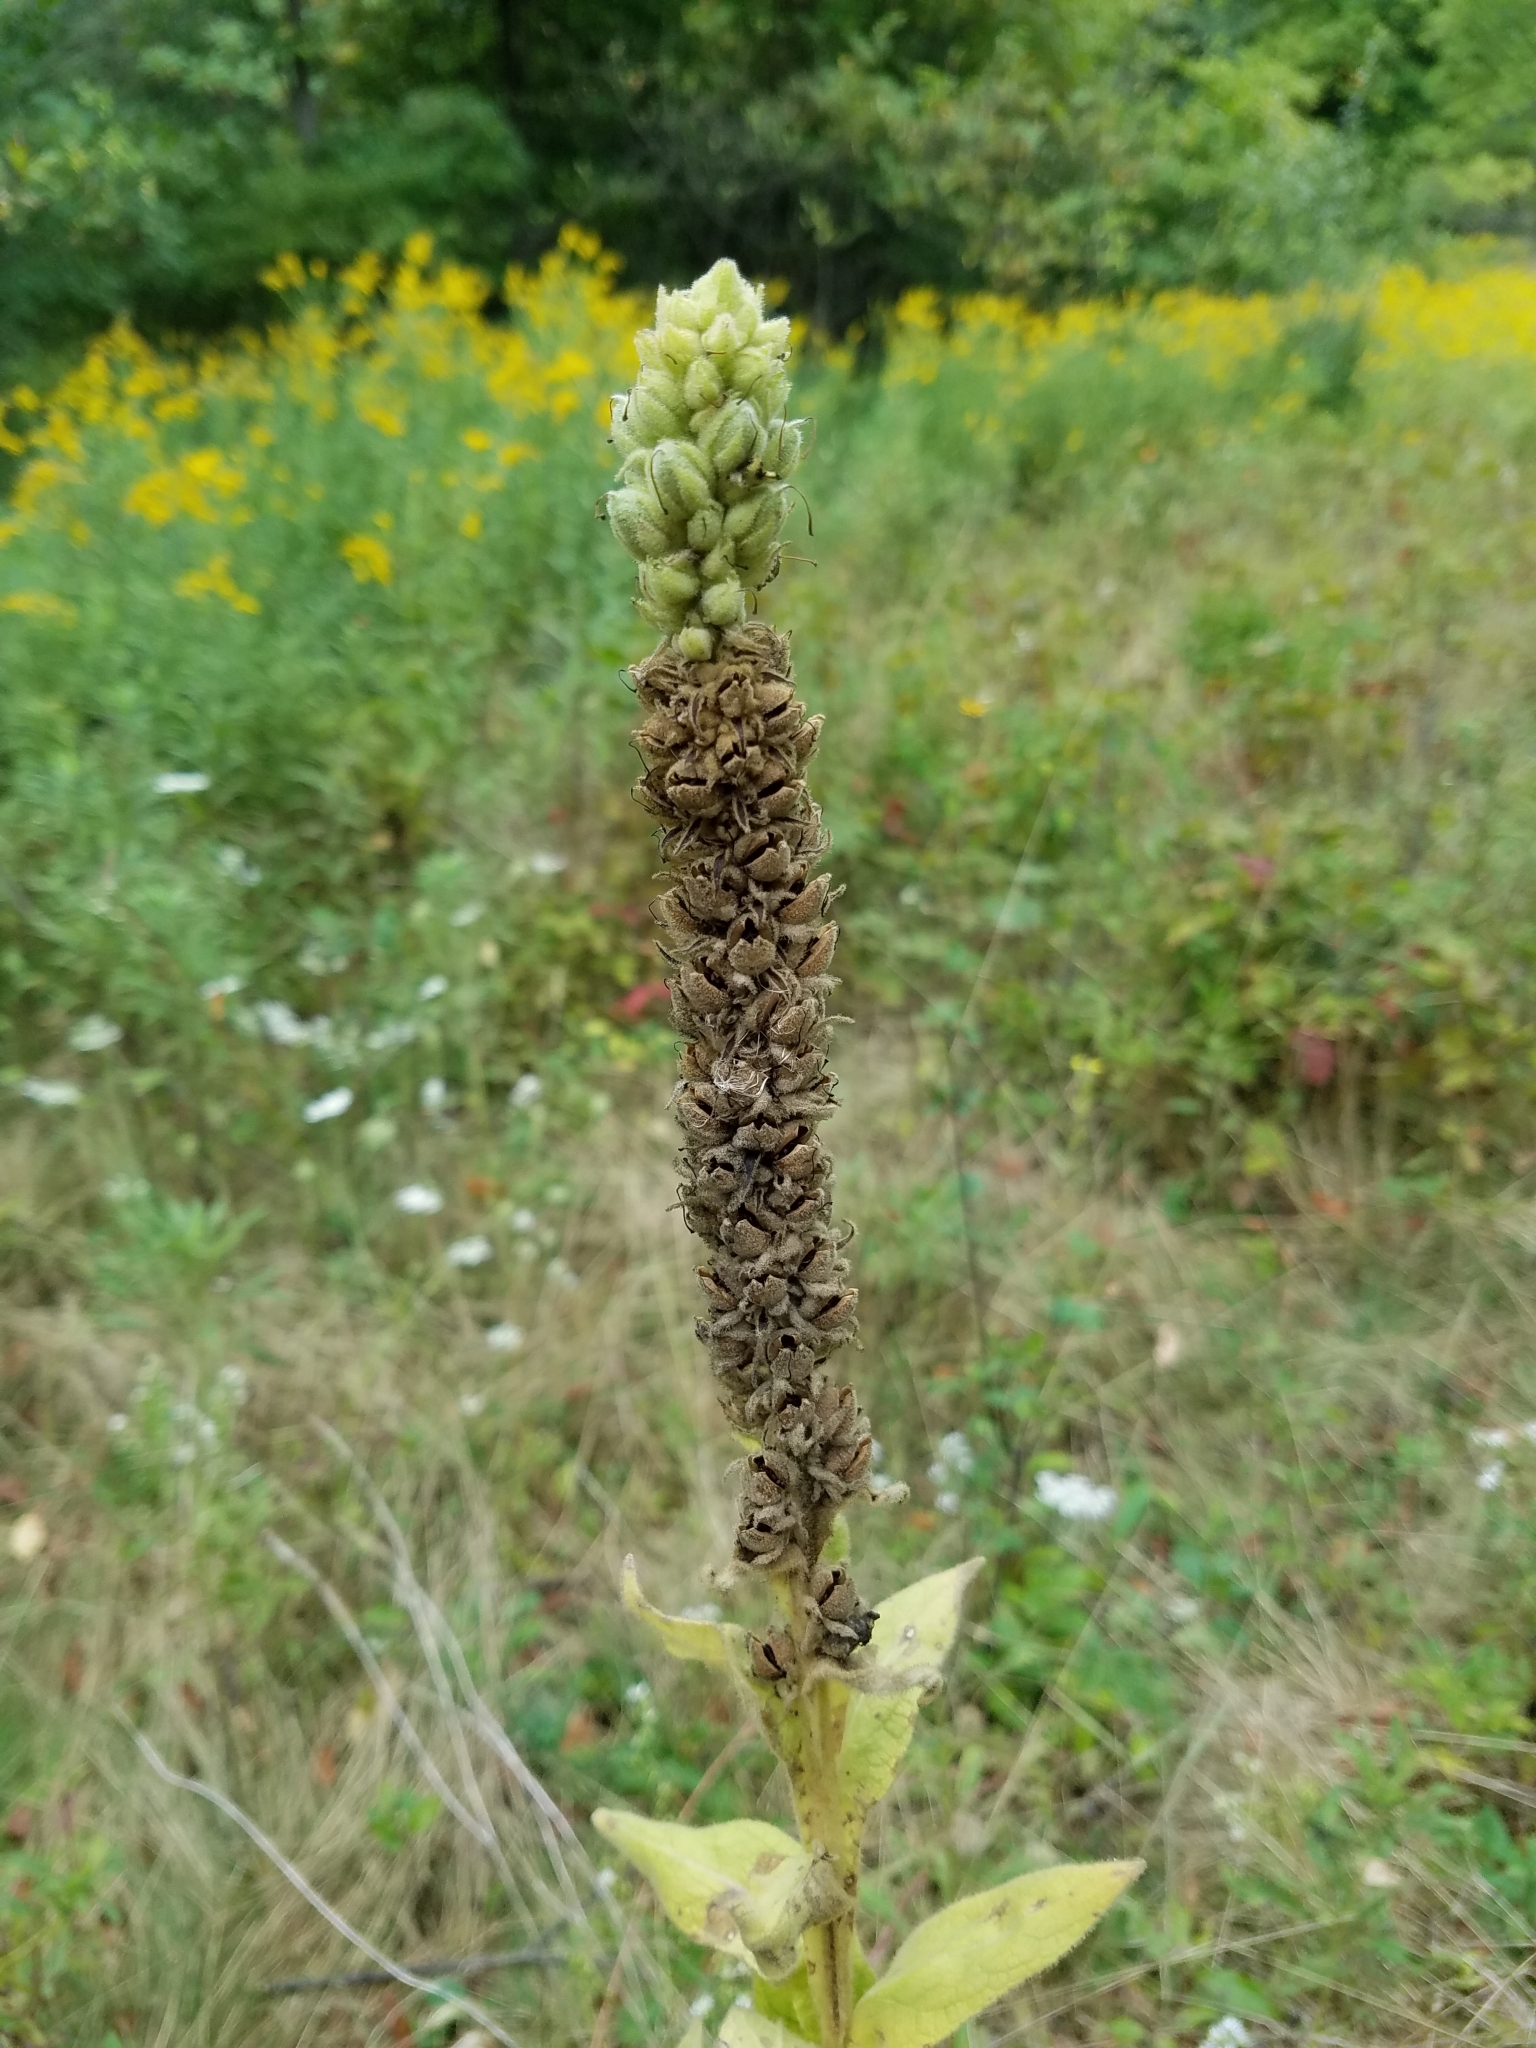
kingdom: Plantae
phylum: Tracheophyta
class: Magnoliopsida
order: Lamiales
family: Scrophulariaceae
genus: Verbascum
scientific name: Verbascum thapsus
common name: Common mullein
